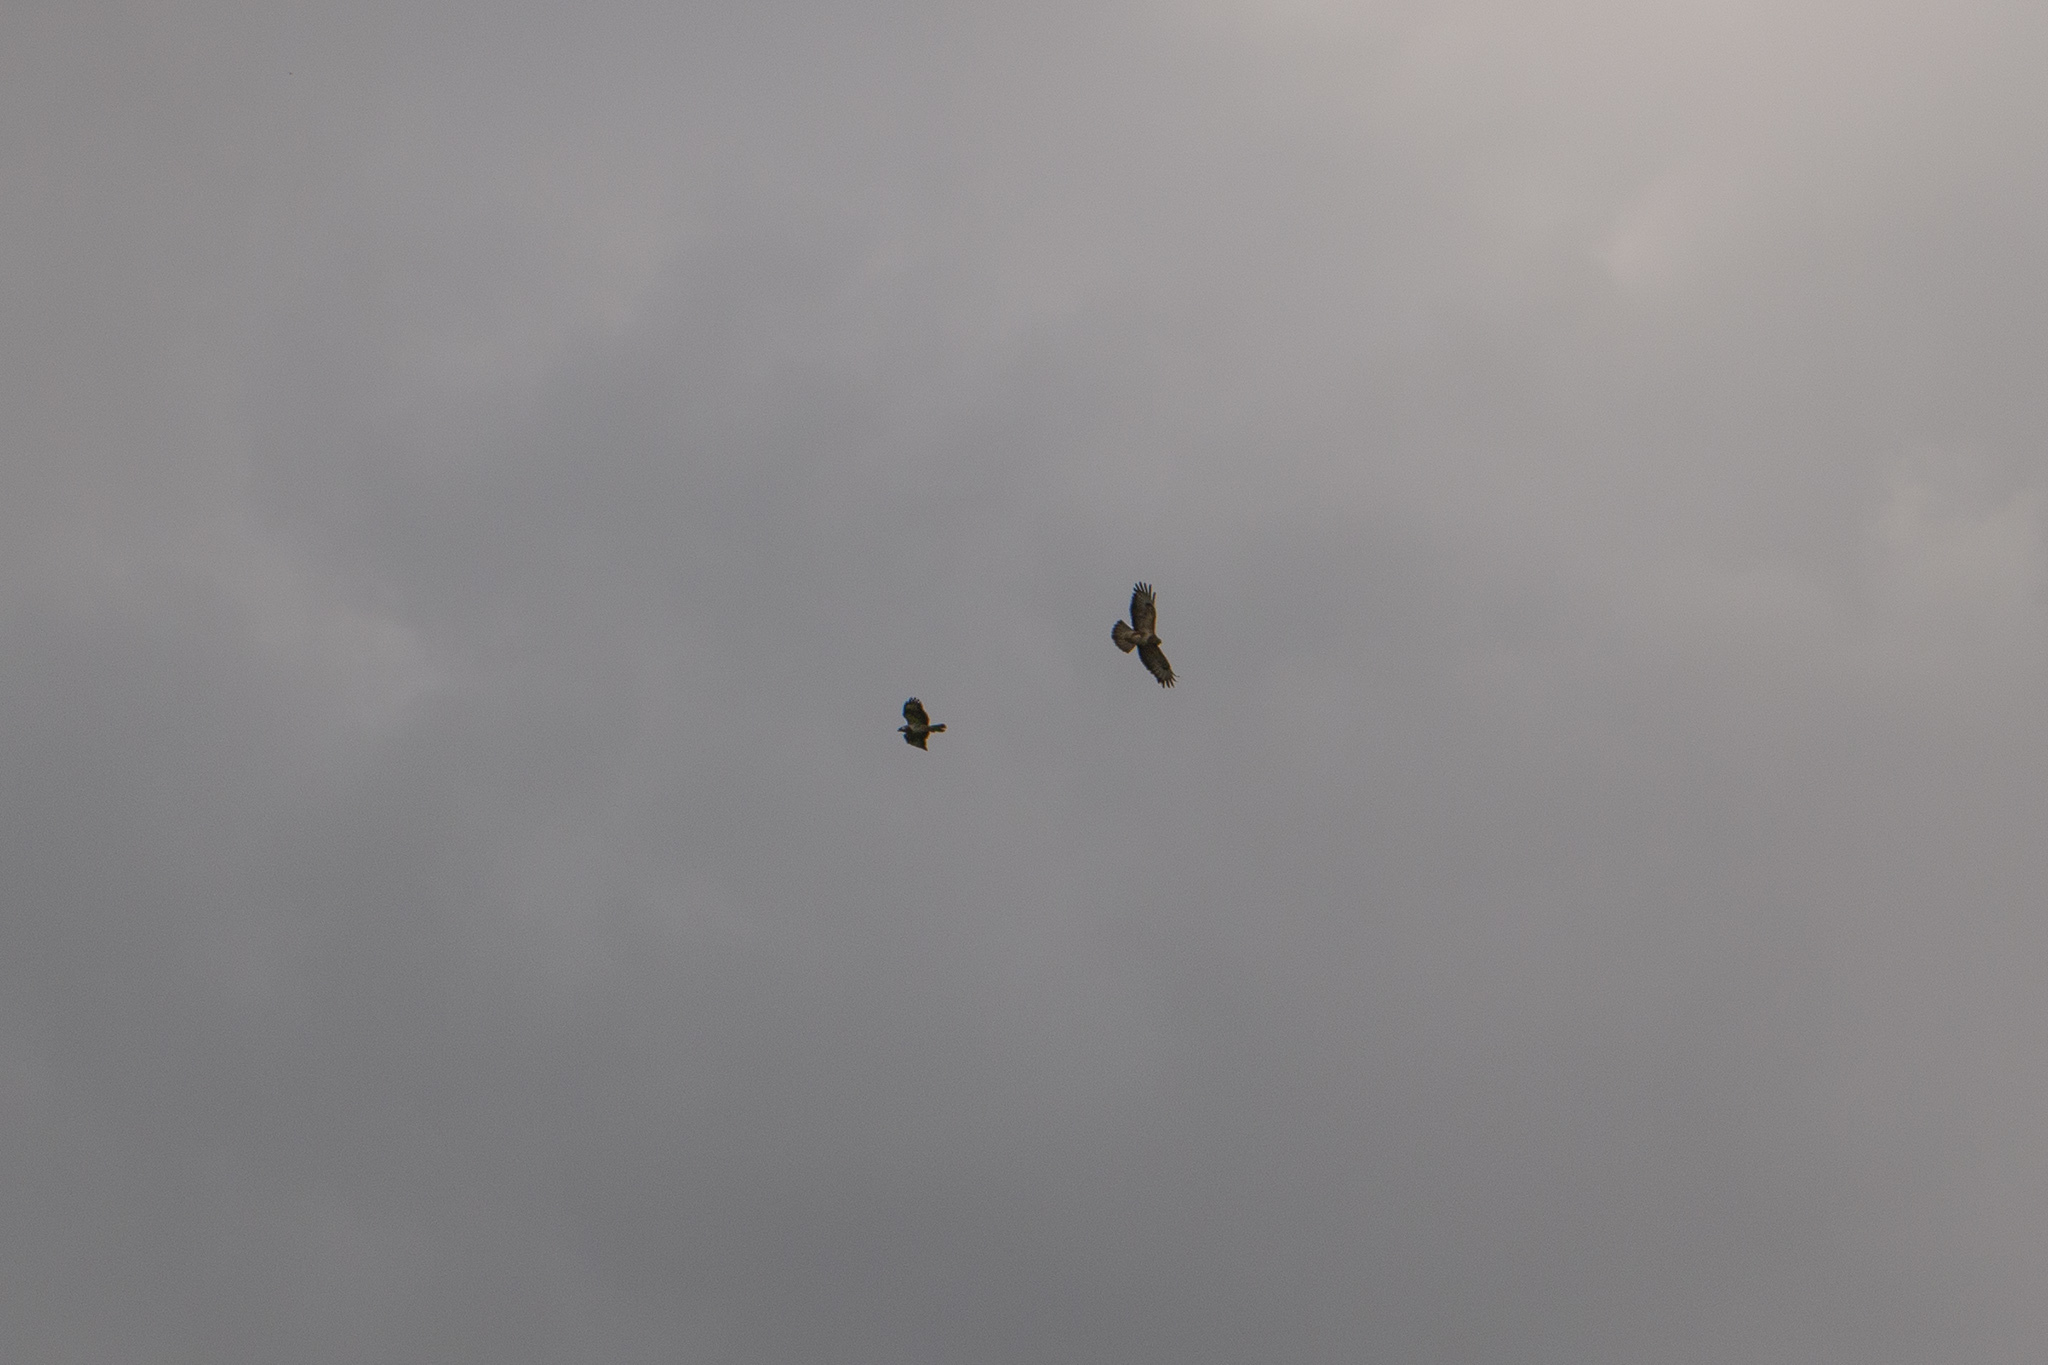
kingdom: Animalia
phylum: Chordata
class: Aves
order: Accipitriformes
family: Accipitridae
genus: Buteo
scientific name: Buteo buteo
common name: Common buzzard
